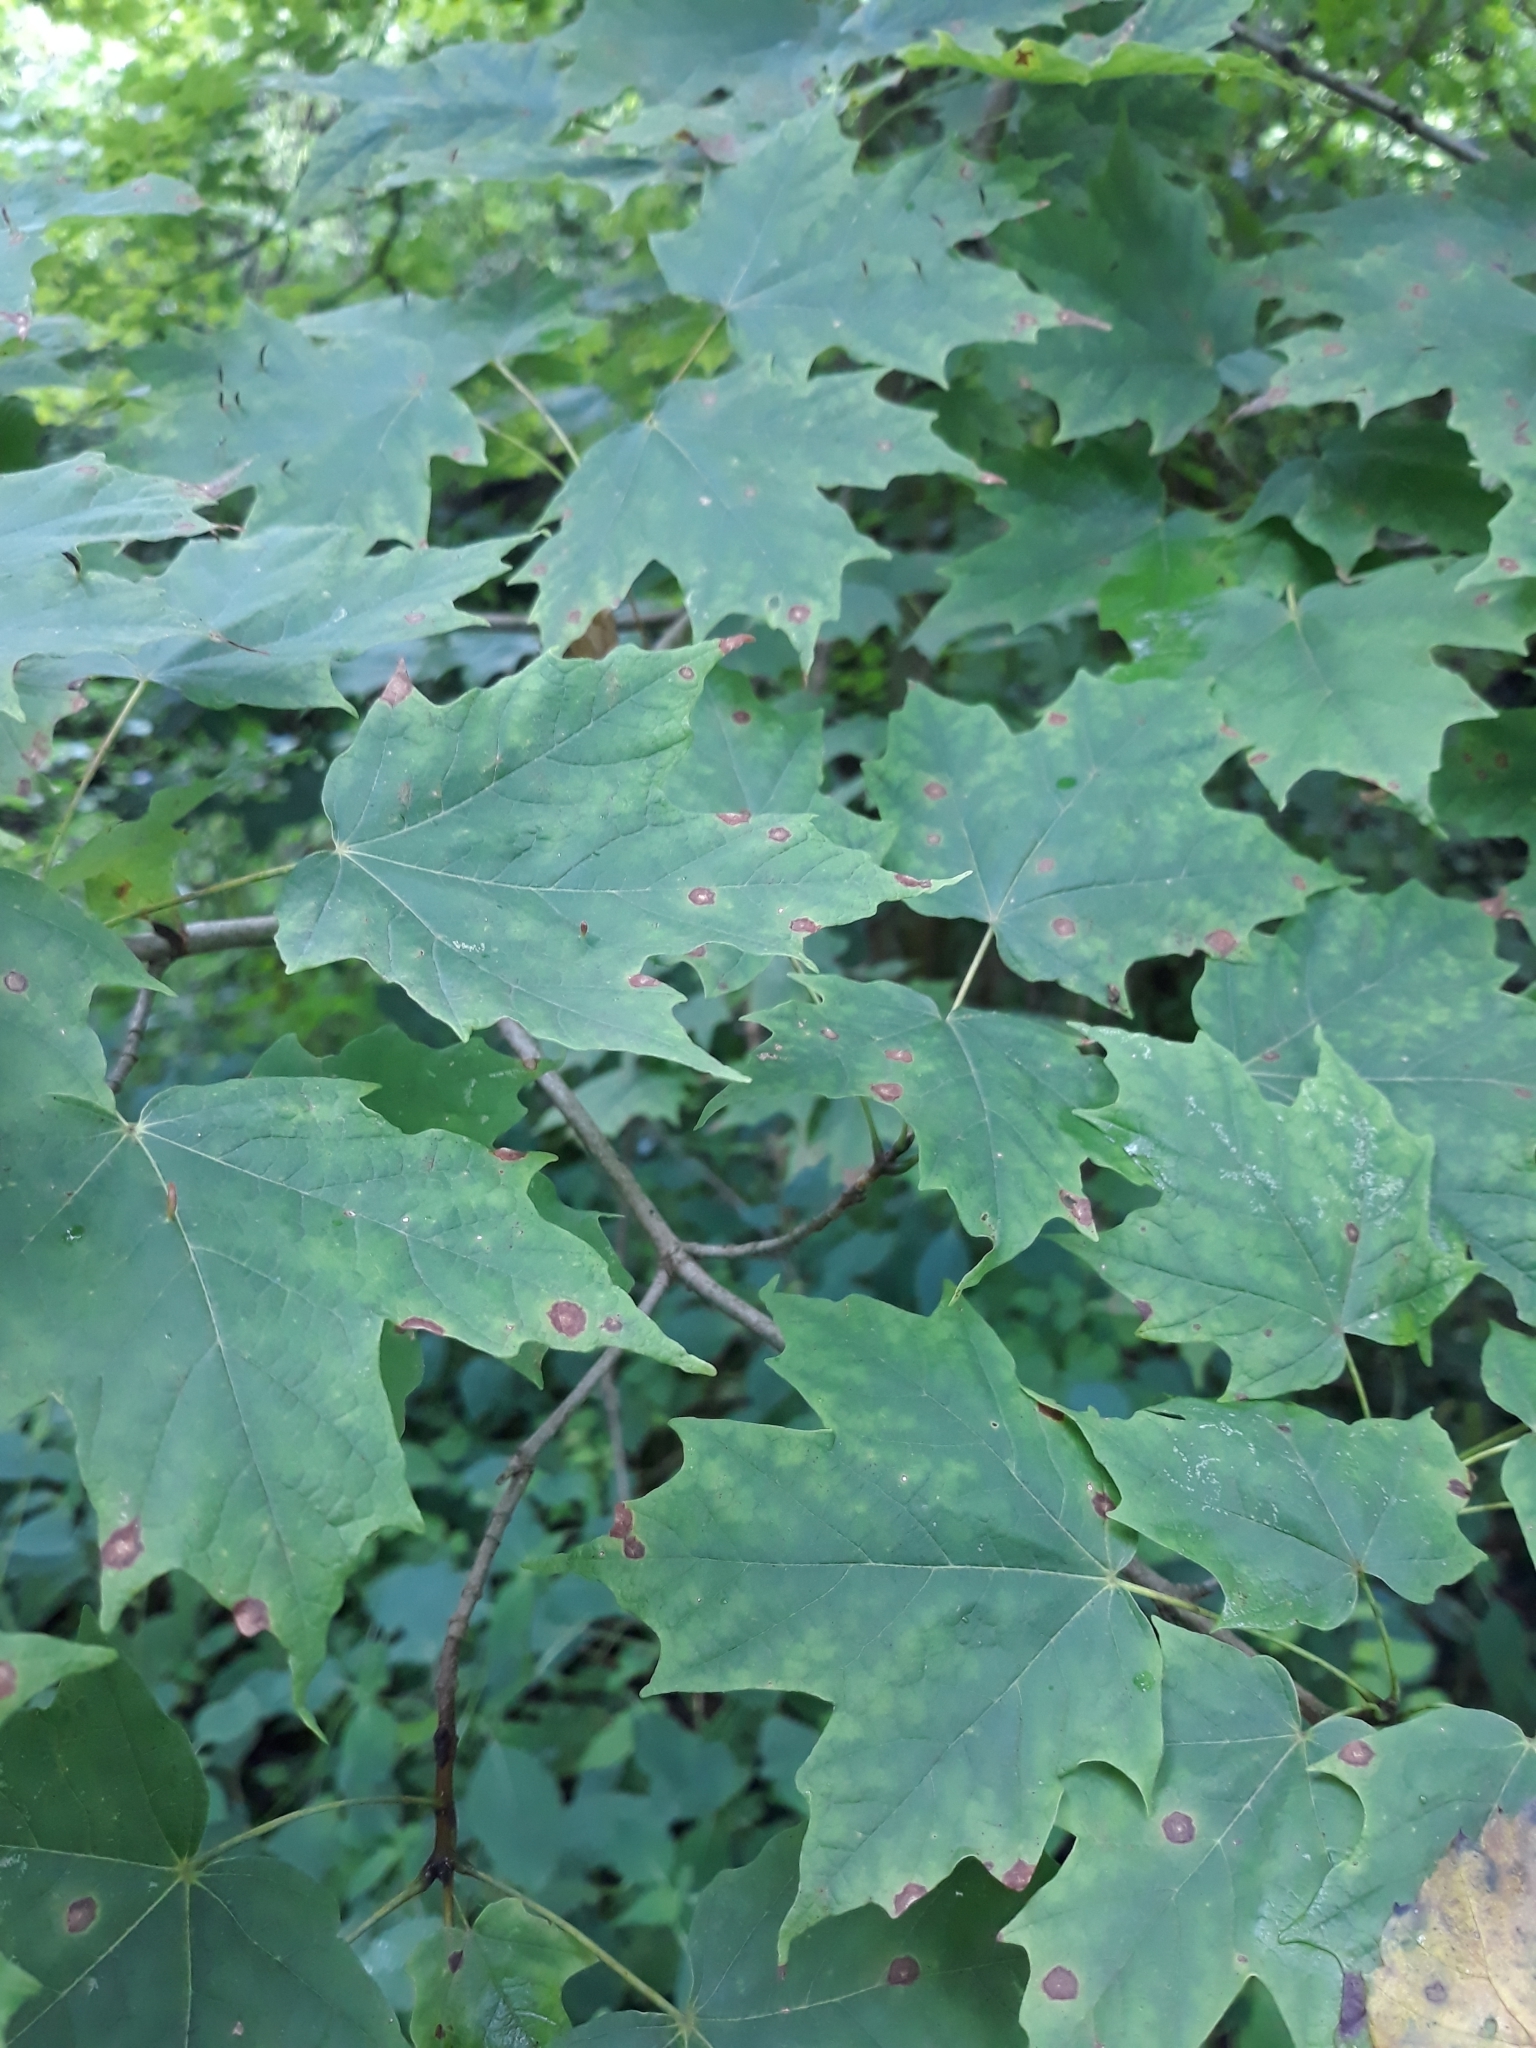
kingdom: Plantae
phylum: Tracheophyta
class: Magnoliopsida
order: Sapindales
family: Sapindaceae
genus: Acer
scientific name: Acer saccharum
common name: Sugar maple
